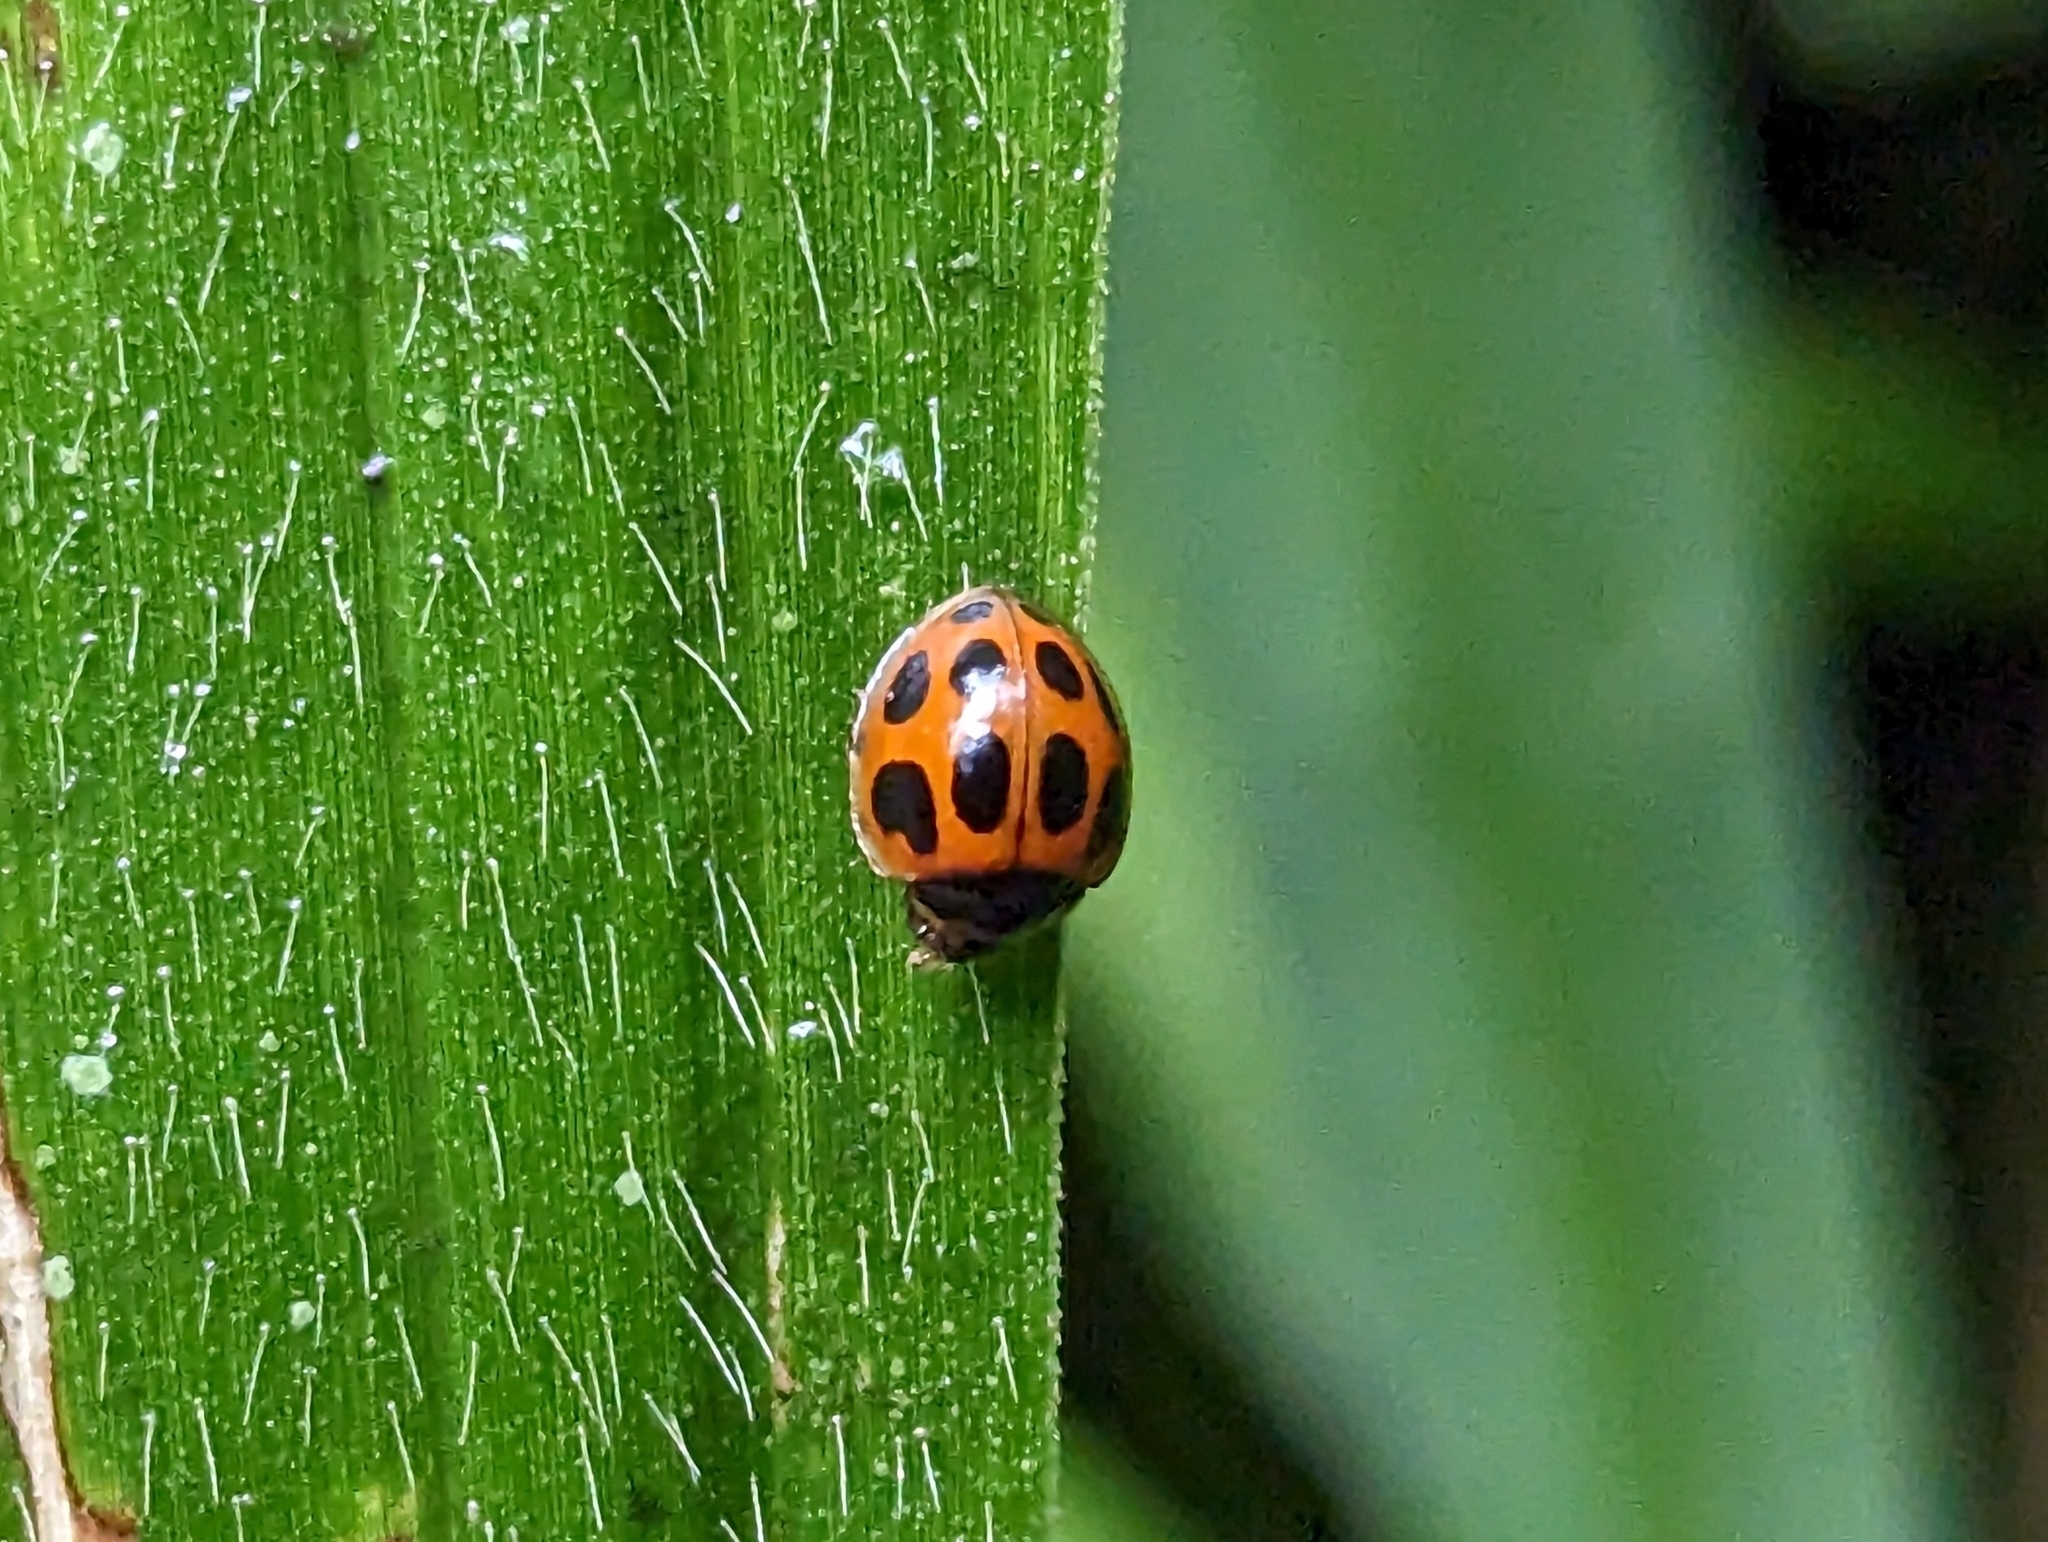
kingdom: Animalia
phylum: Arthropoda
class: Insecta
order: Coleoptera
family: Coccinellidae
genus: Zagreus
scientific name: Zagreus
